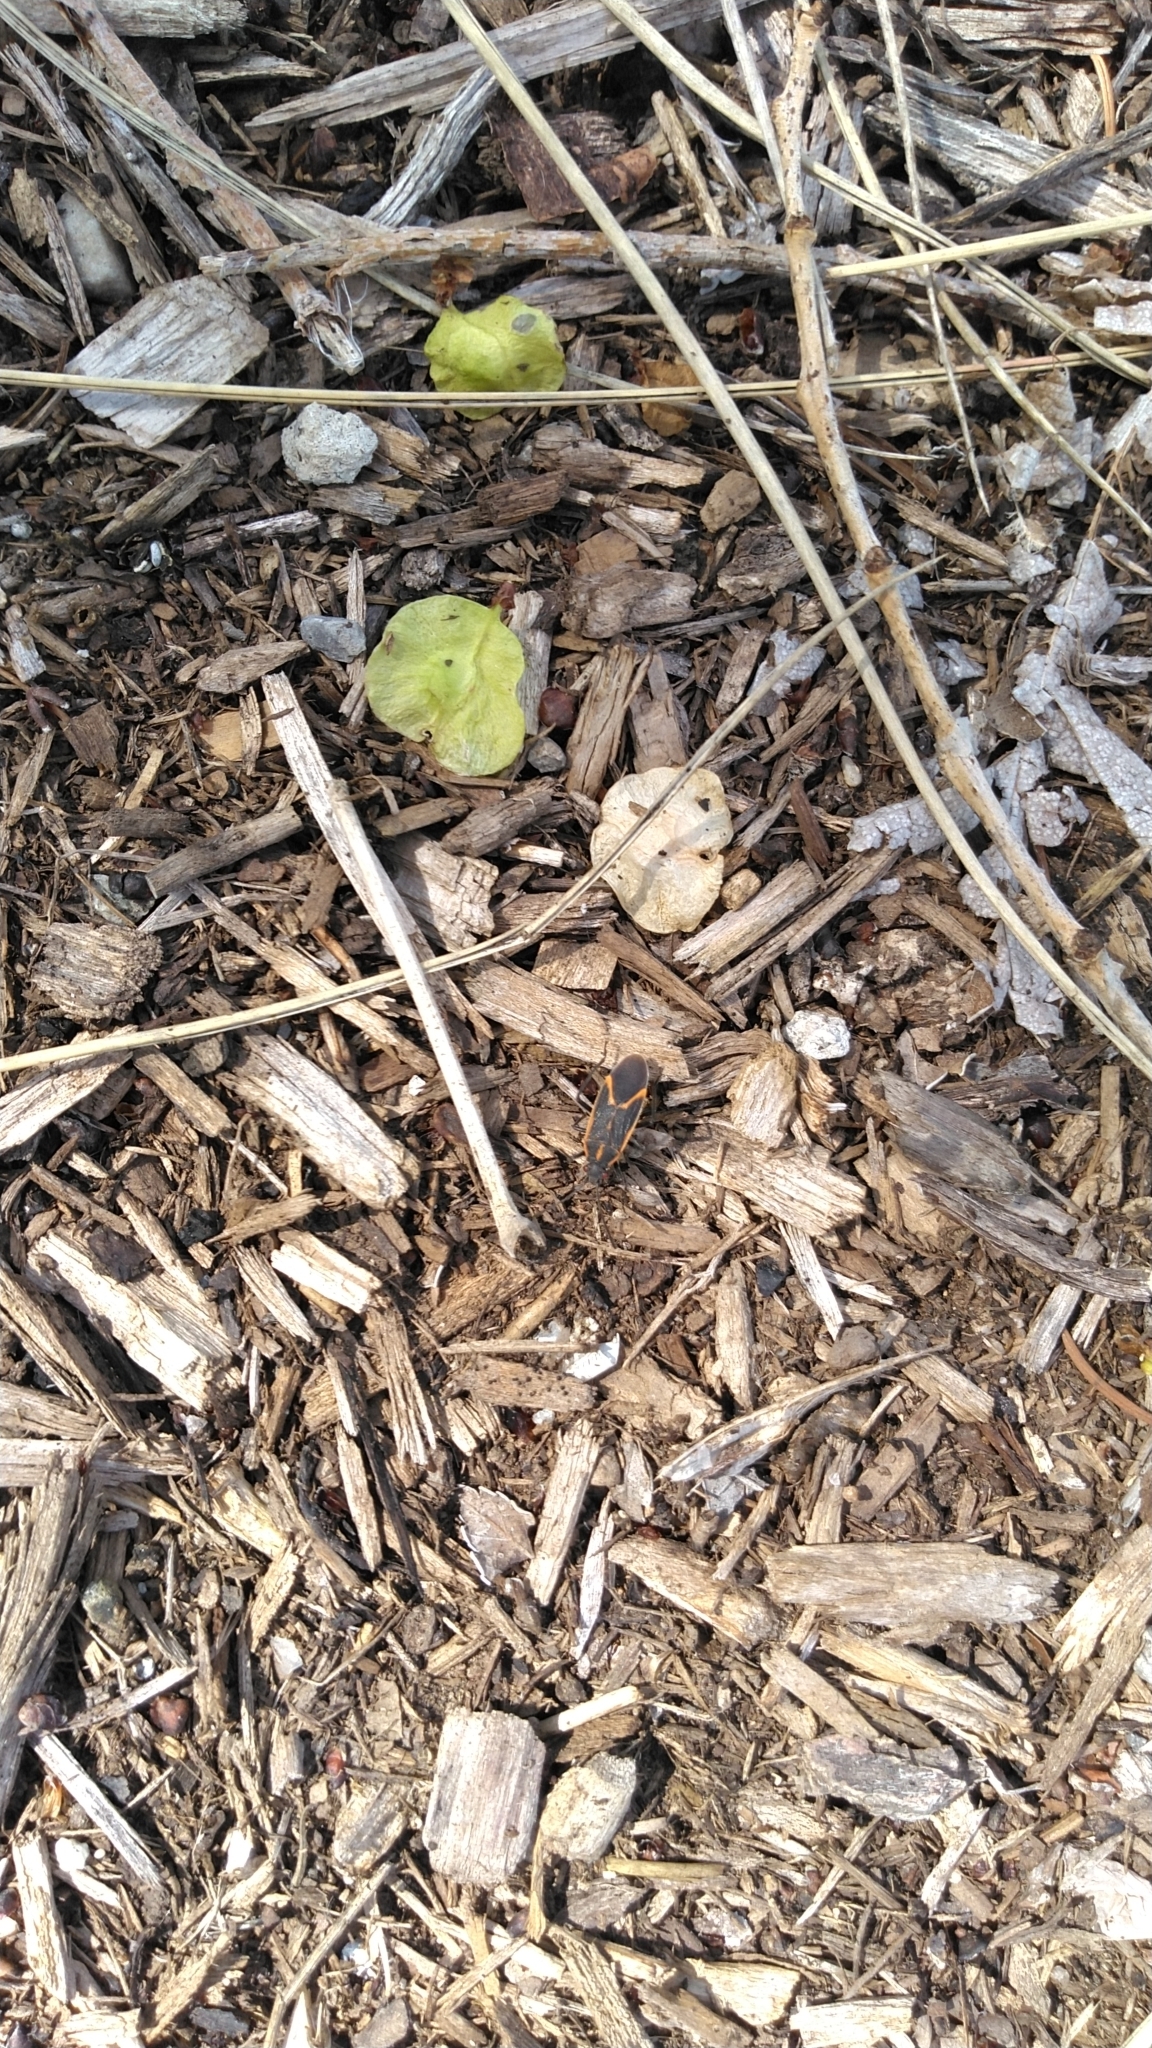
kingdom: Animalia
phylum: Arthropoda
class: Insecta
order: Hemiptera
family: Rhopalidae
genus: Boisea
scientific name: Boisea trivittata
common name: Boxelder bug
